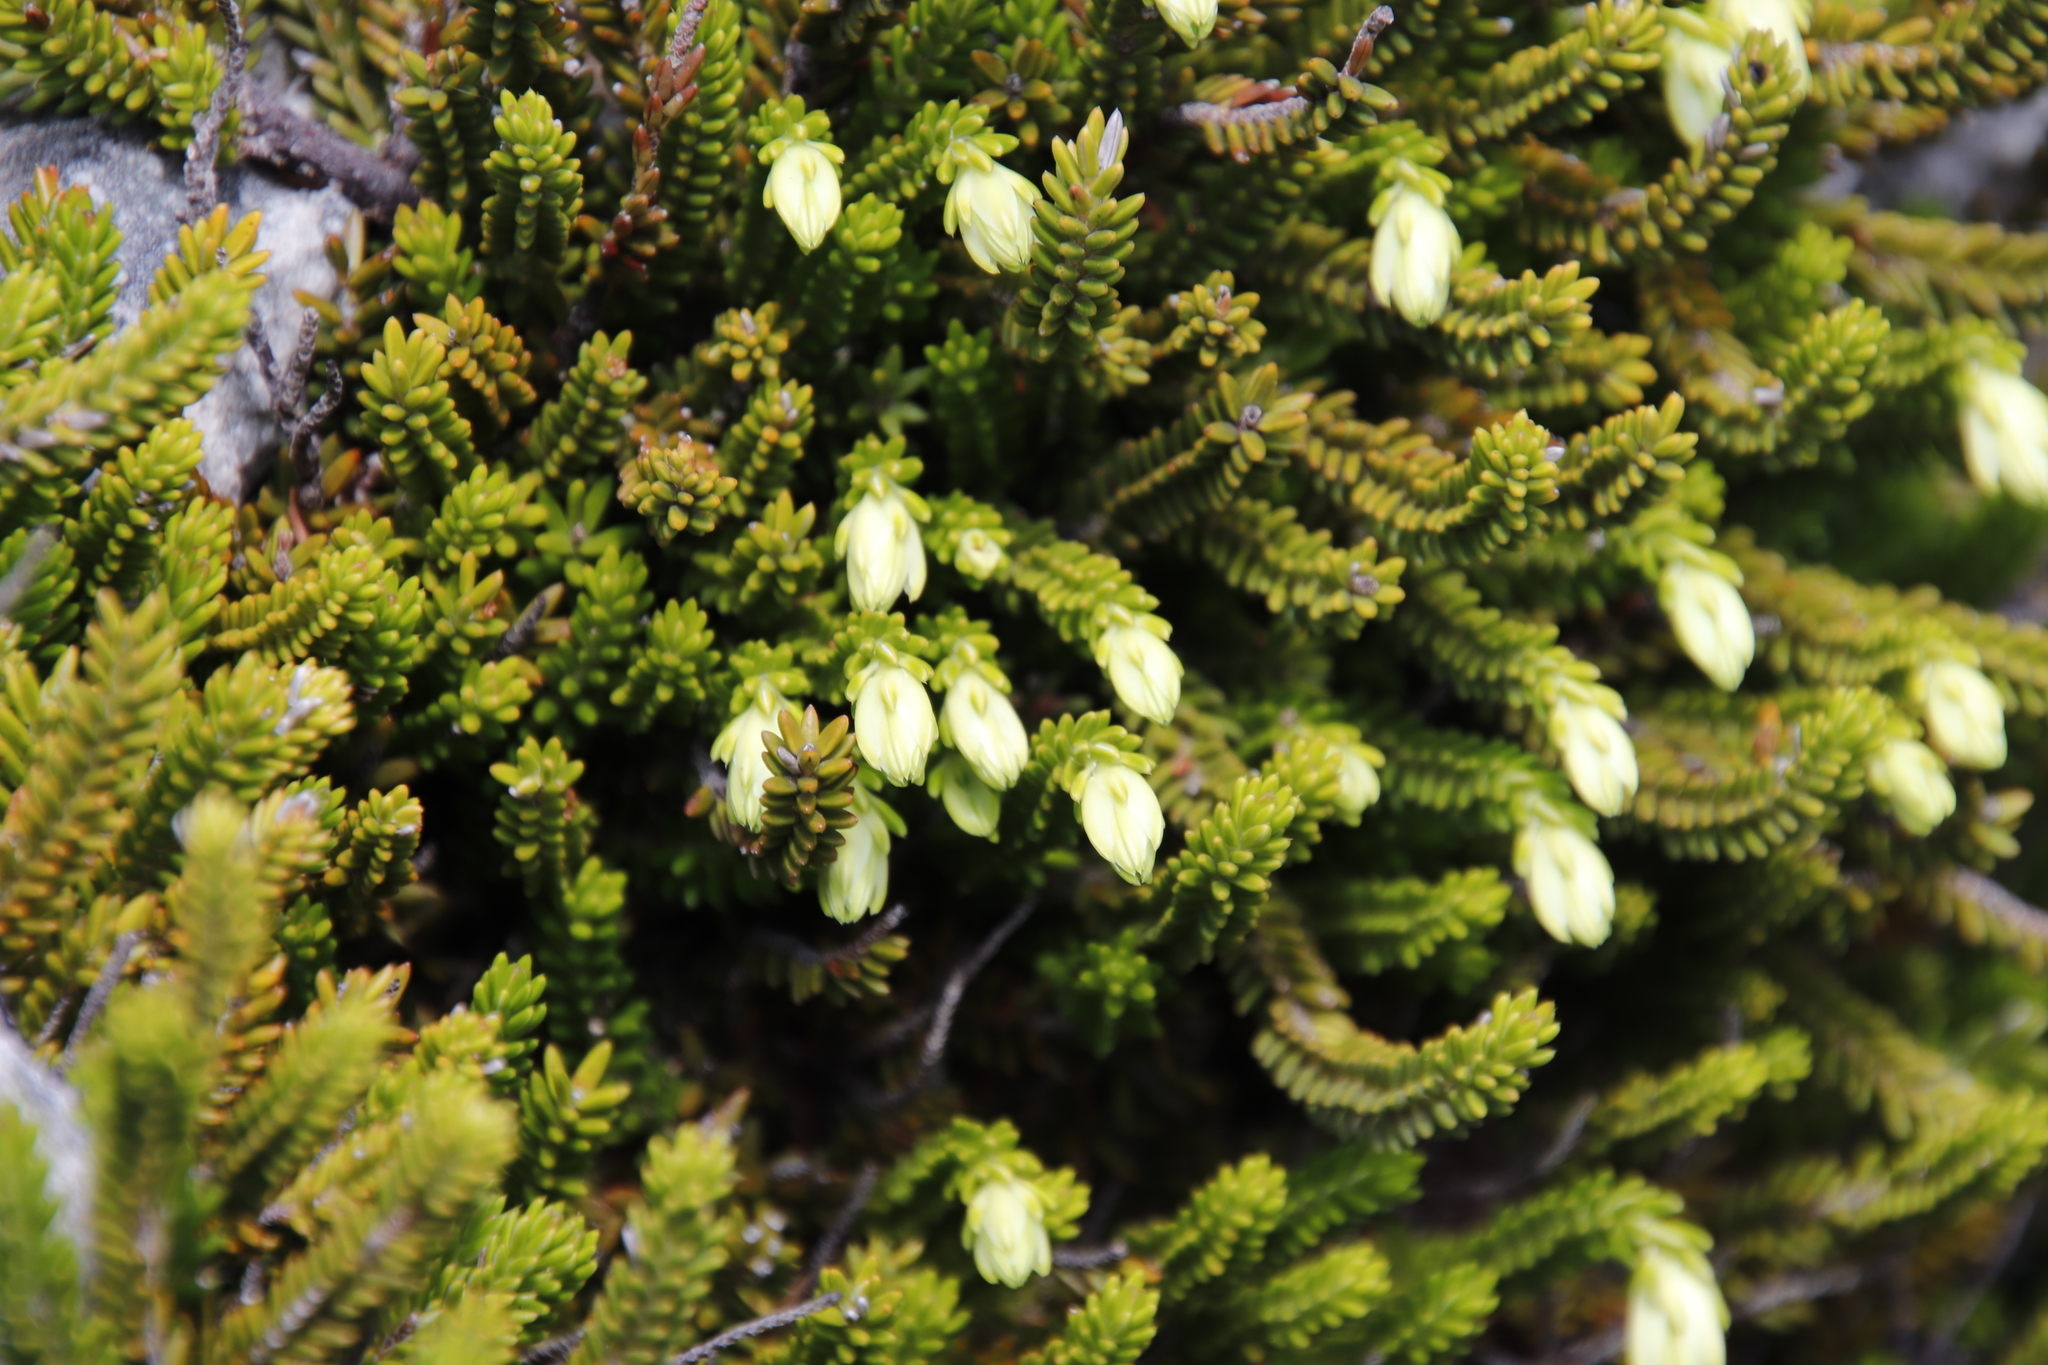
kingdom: Plantae
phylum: Tracheophyta
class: Magnoliopsida
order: Ericales
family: Ericaceae
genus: Erica
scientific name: Erica banksia
